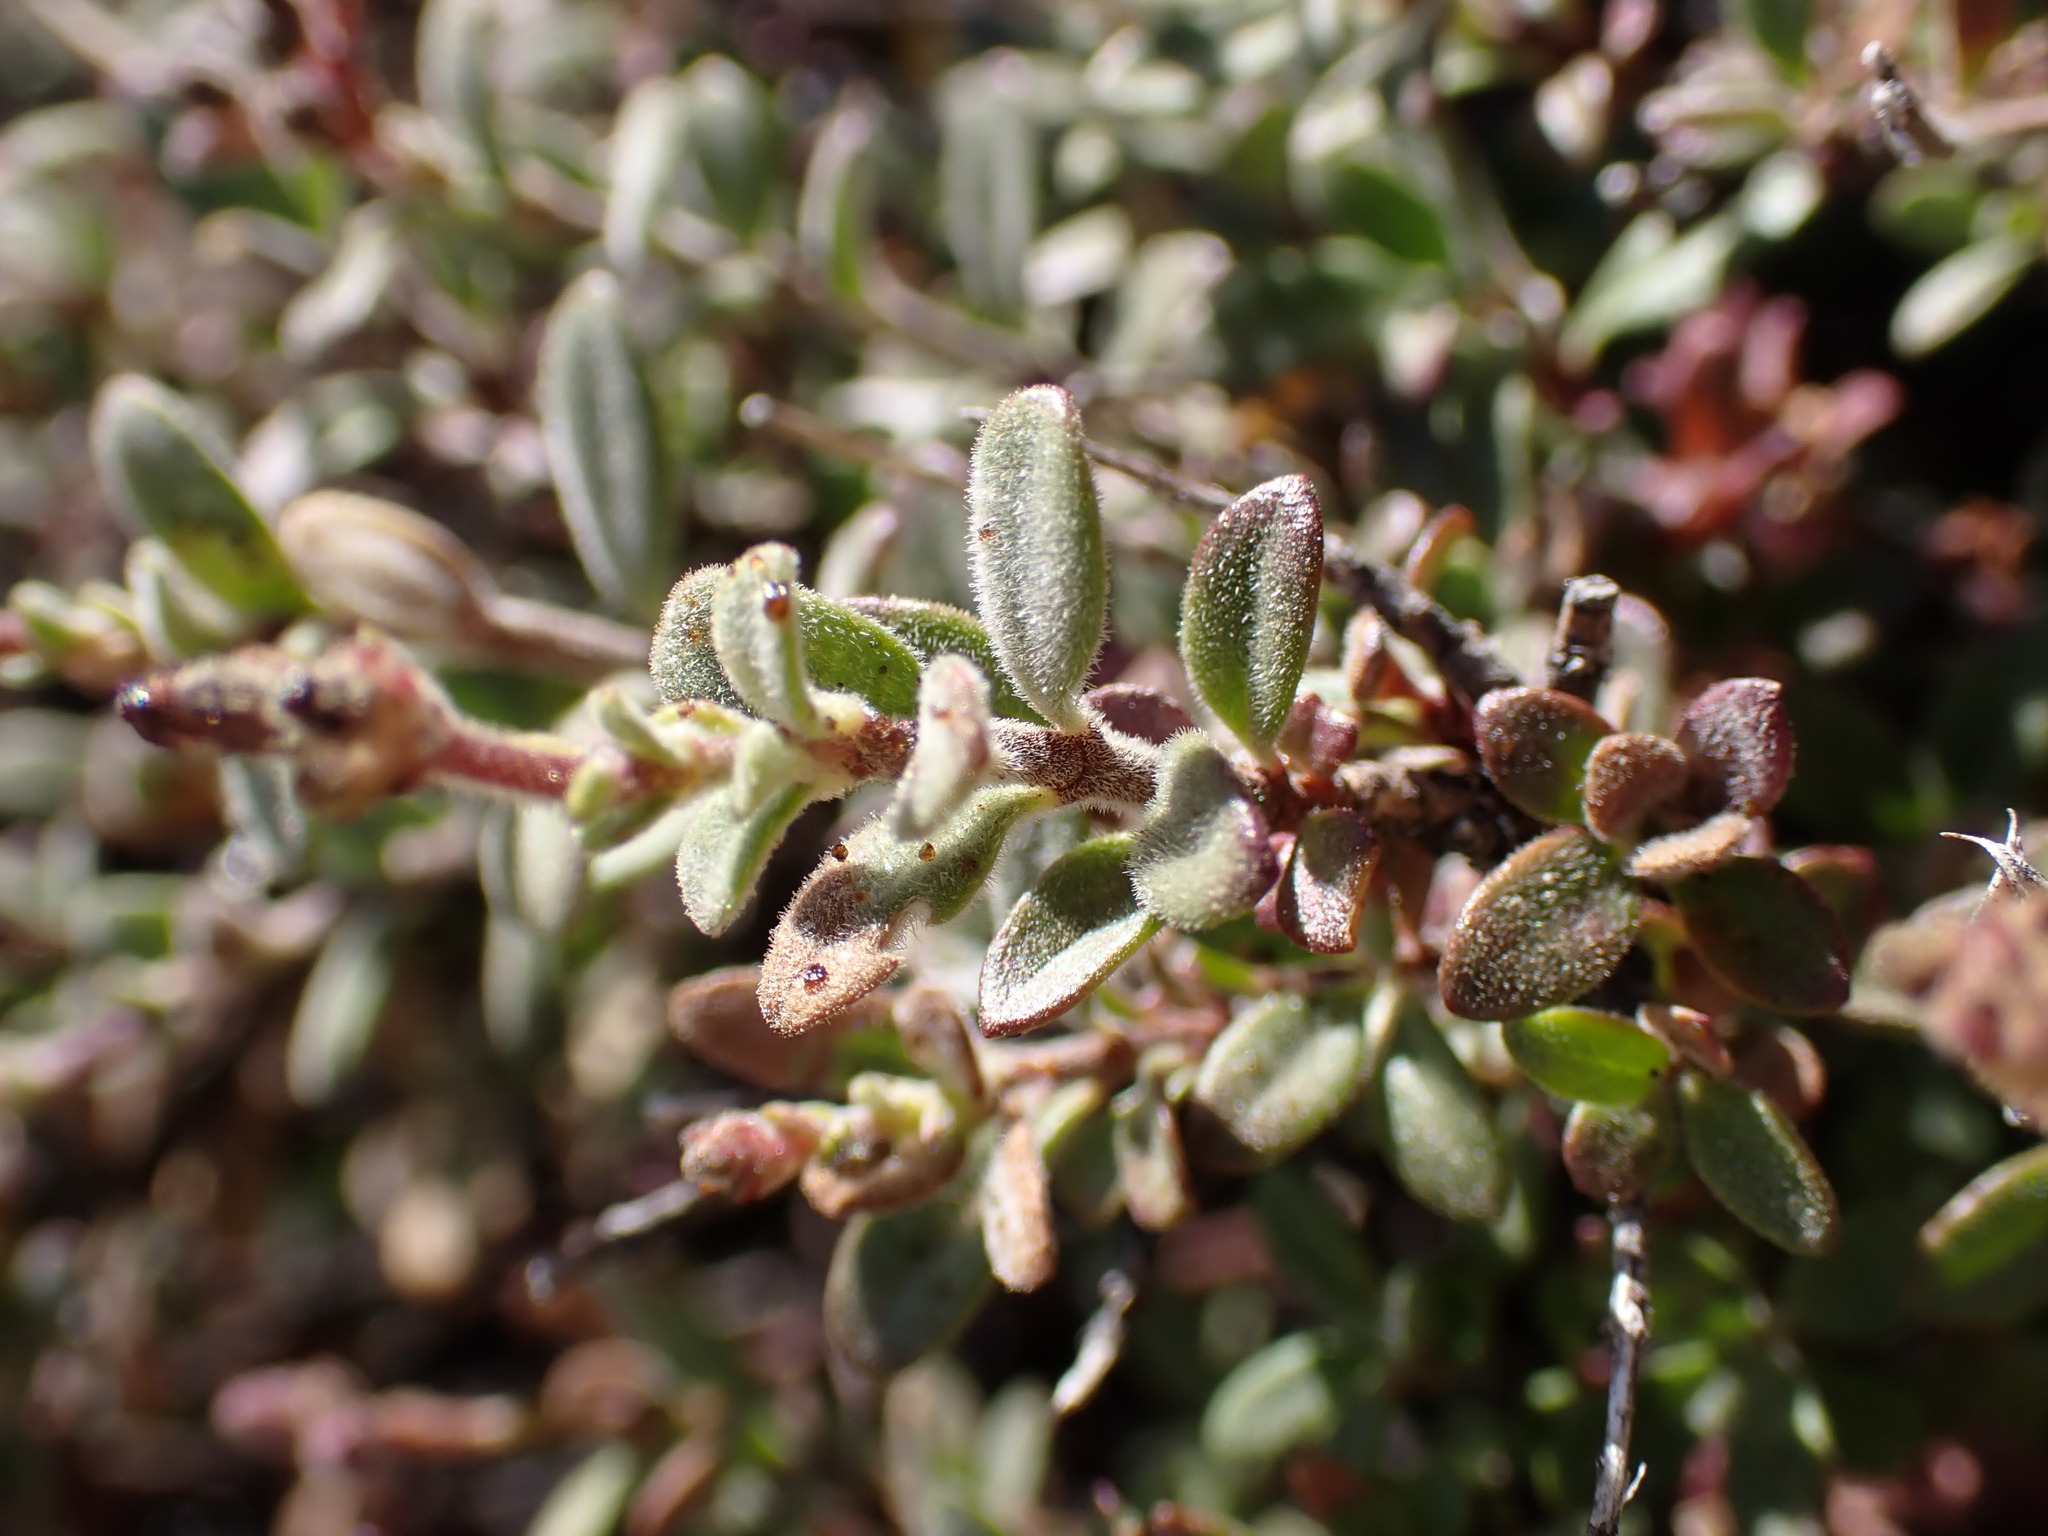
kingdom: Plantae
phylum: Tracheophyta
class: Magnoliopsida
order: Lamiales
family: Plantaginaceae
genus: Keckiella
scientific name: Keckiella corymbosa
